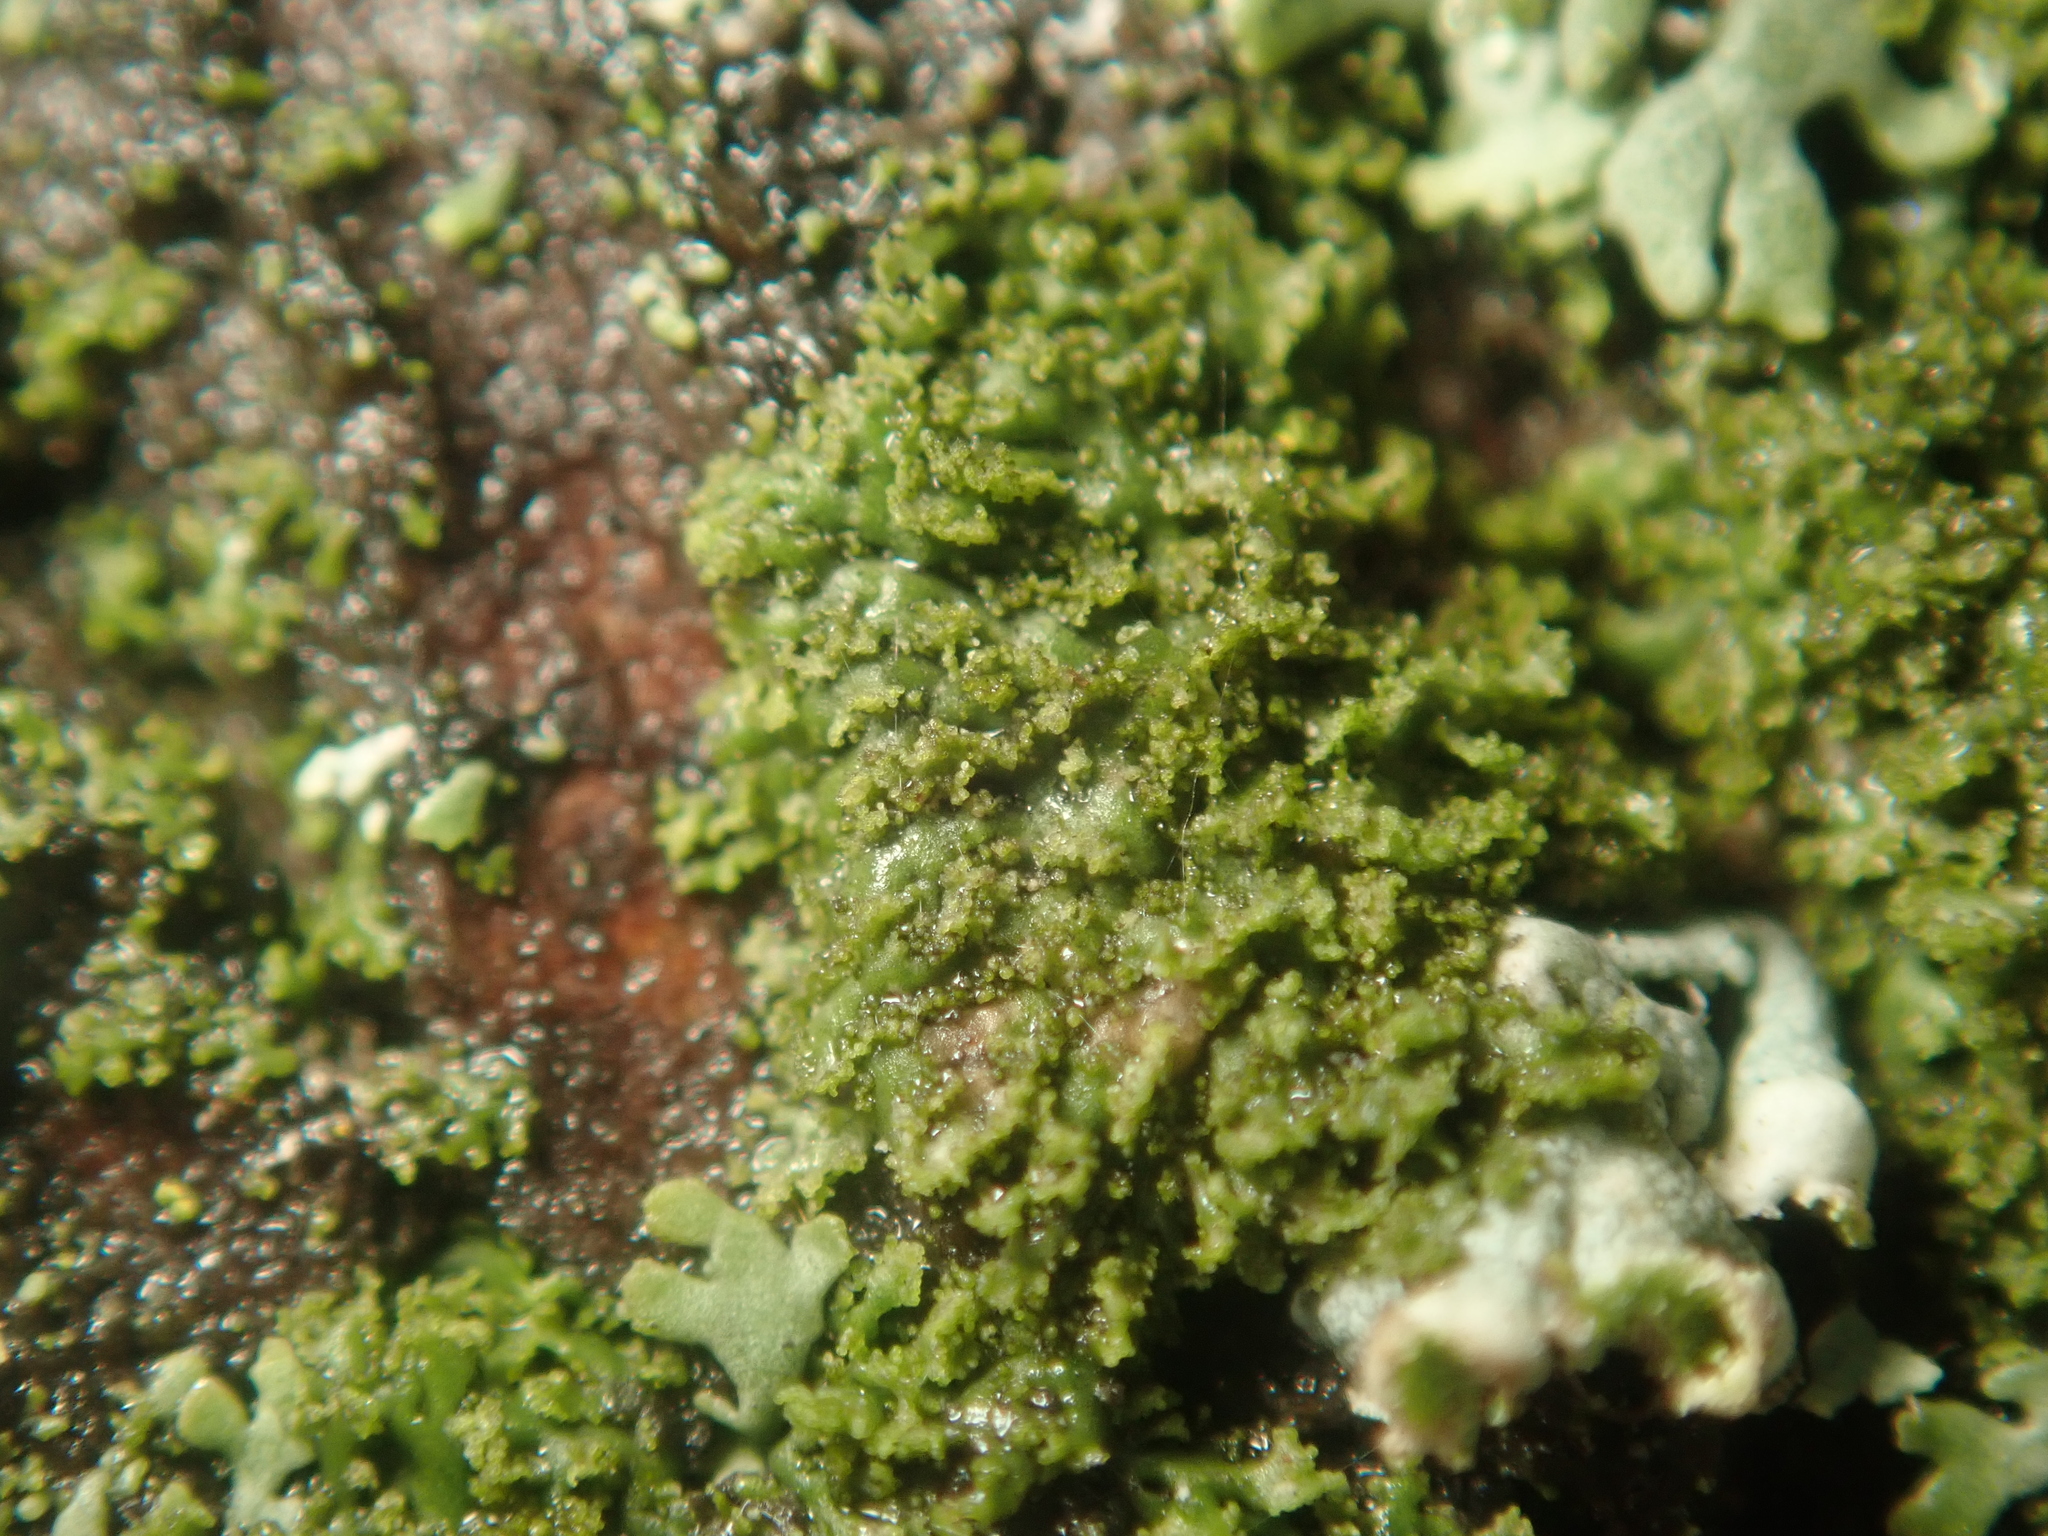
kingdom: Fungi
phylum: Ascomycota
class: Lecanoromycetes
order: Caliciales
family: Physciaceae
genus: Physciella
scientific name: Physciella nigricans
